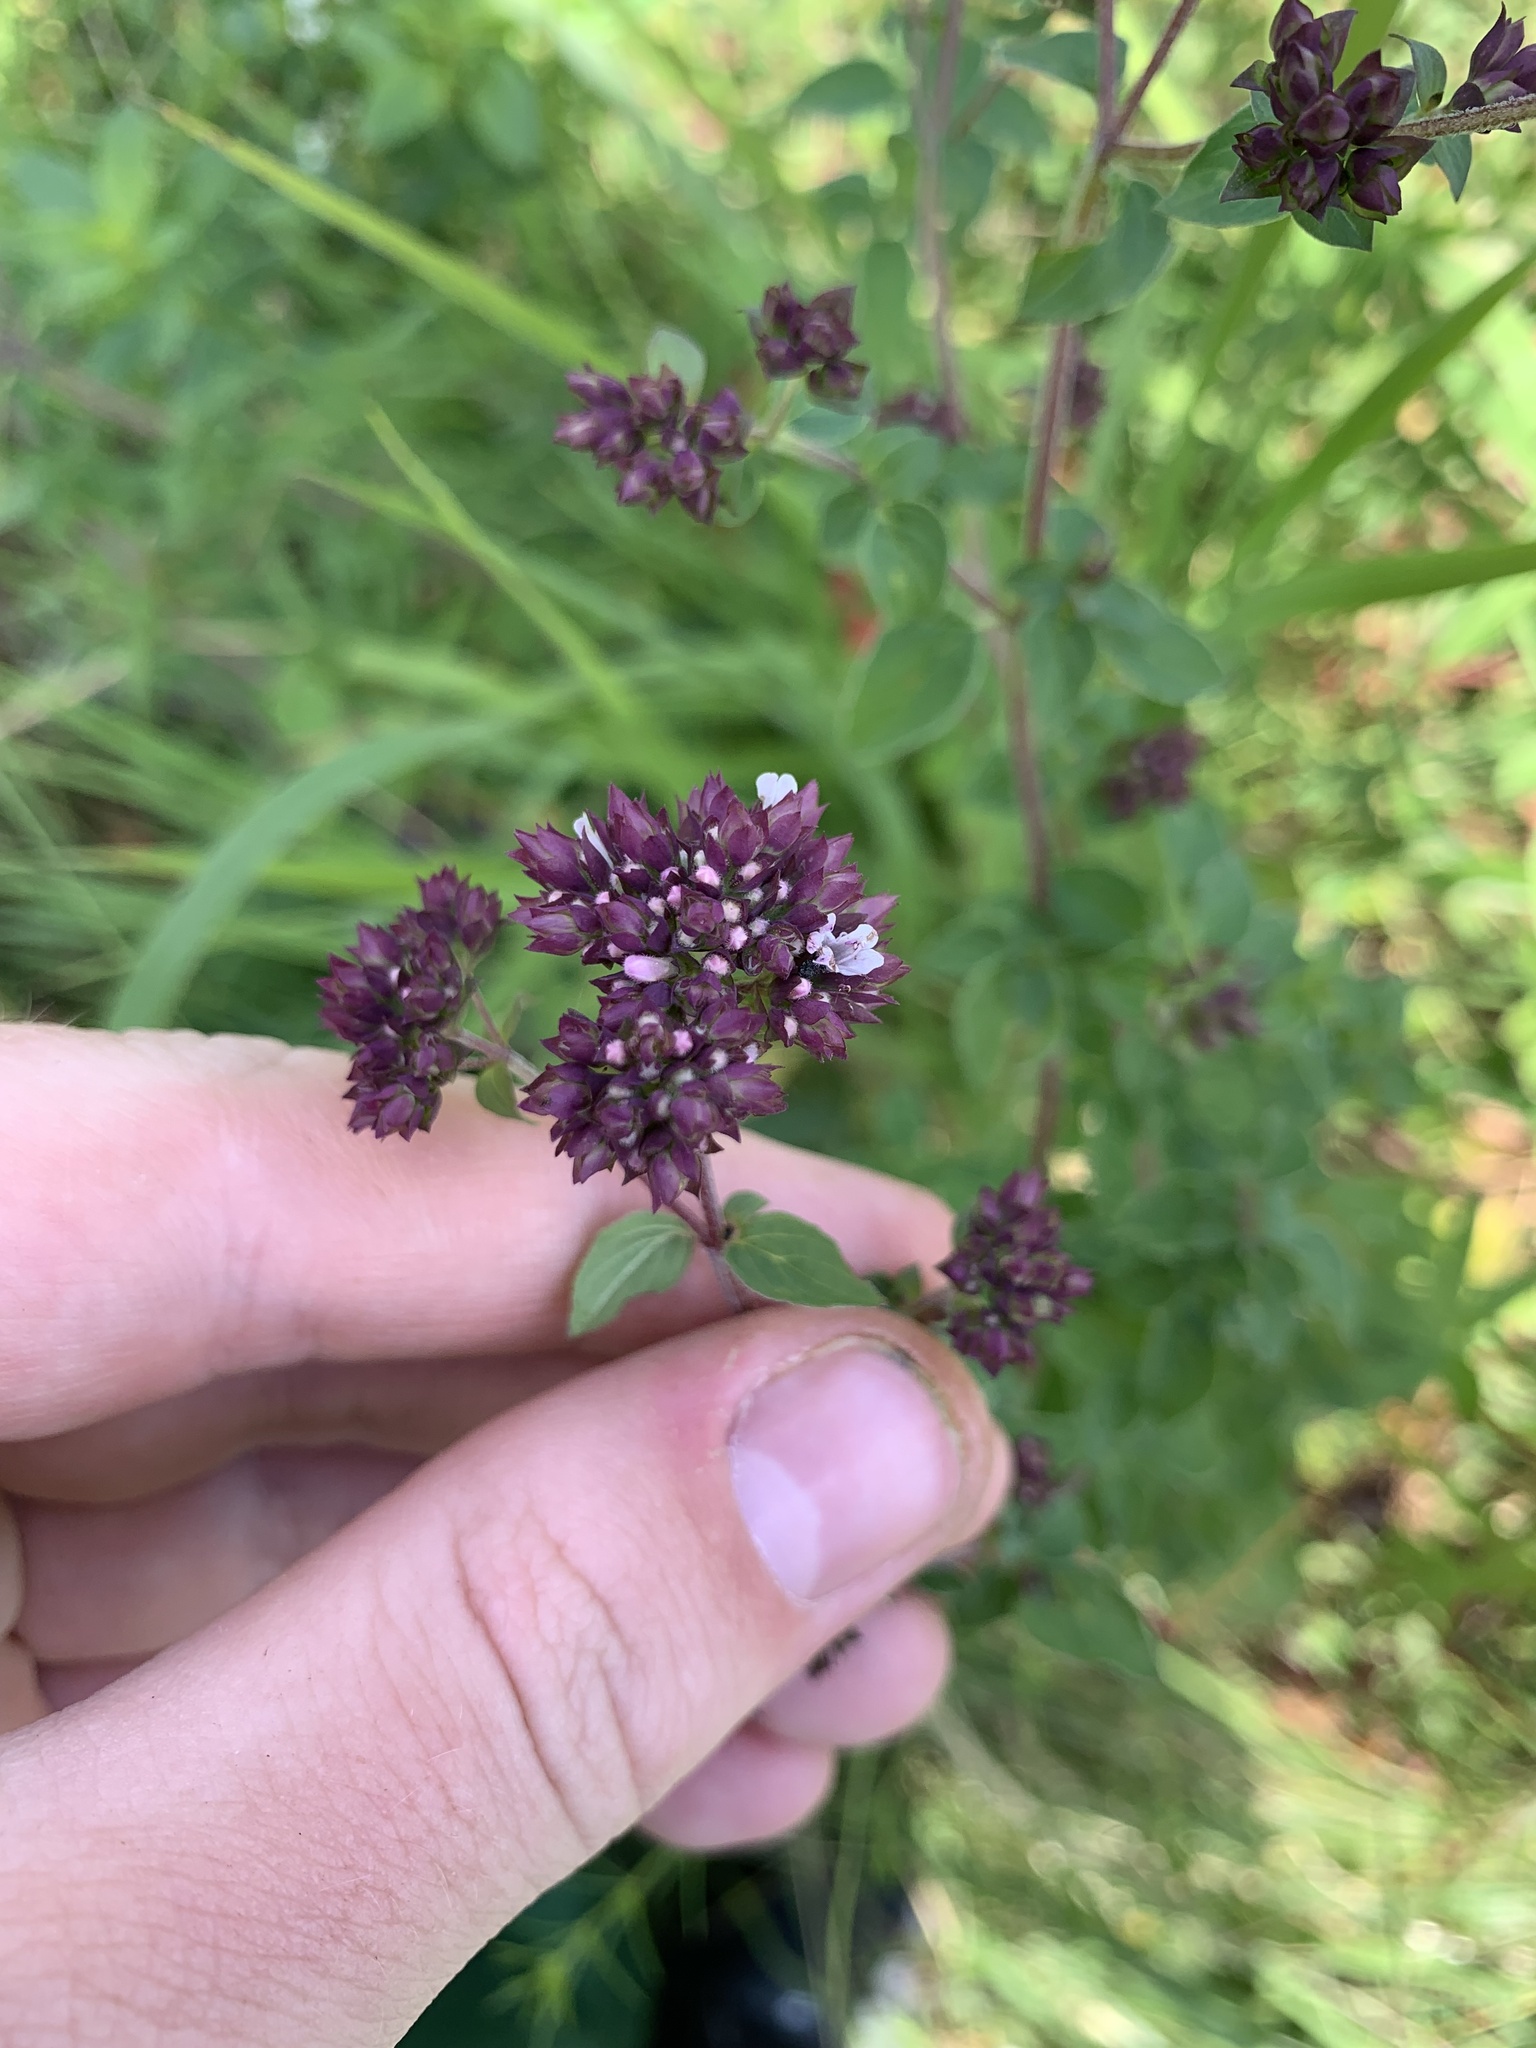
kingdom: Plantae
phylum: Tracheophyta
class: Magnoliopsida
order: Lamiales
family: Lamiaceae
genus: Origanum
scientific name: Origanum vulgare
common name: Wild marjoram
